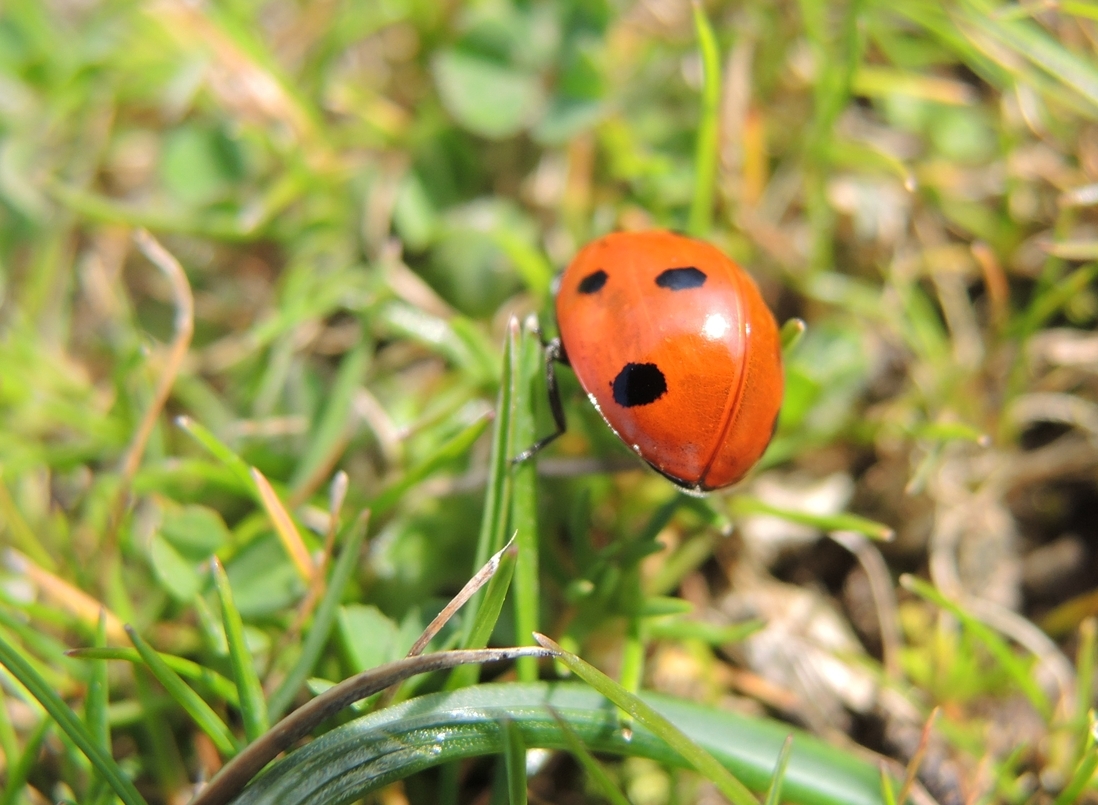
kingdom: Animalia
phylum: Arthropoda
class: Insecta
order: Coleoptera
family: Coccinellidae
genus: Coccinella
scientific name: Coccinella septempunctata
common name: Sevenspotted lady beetle
